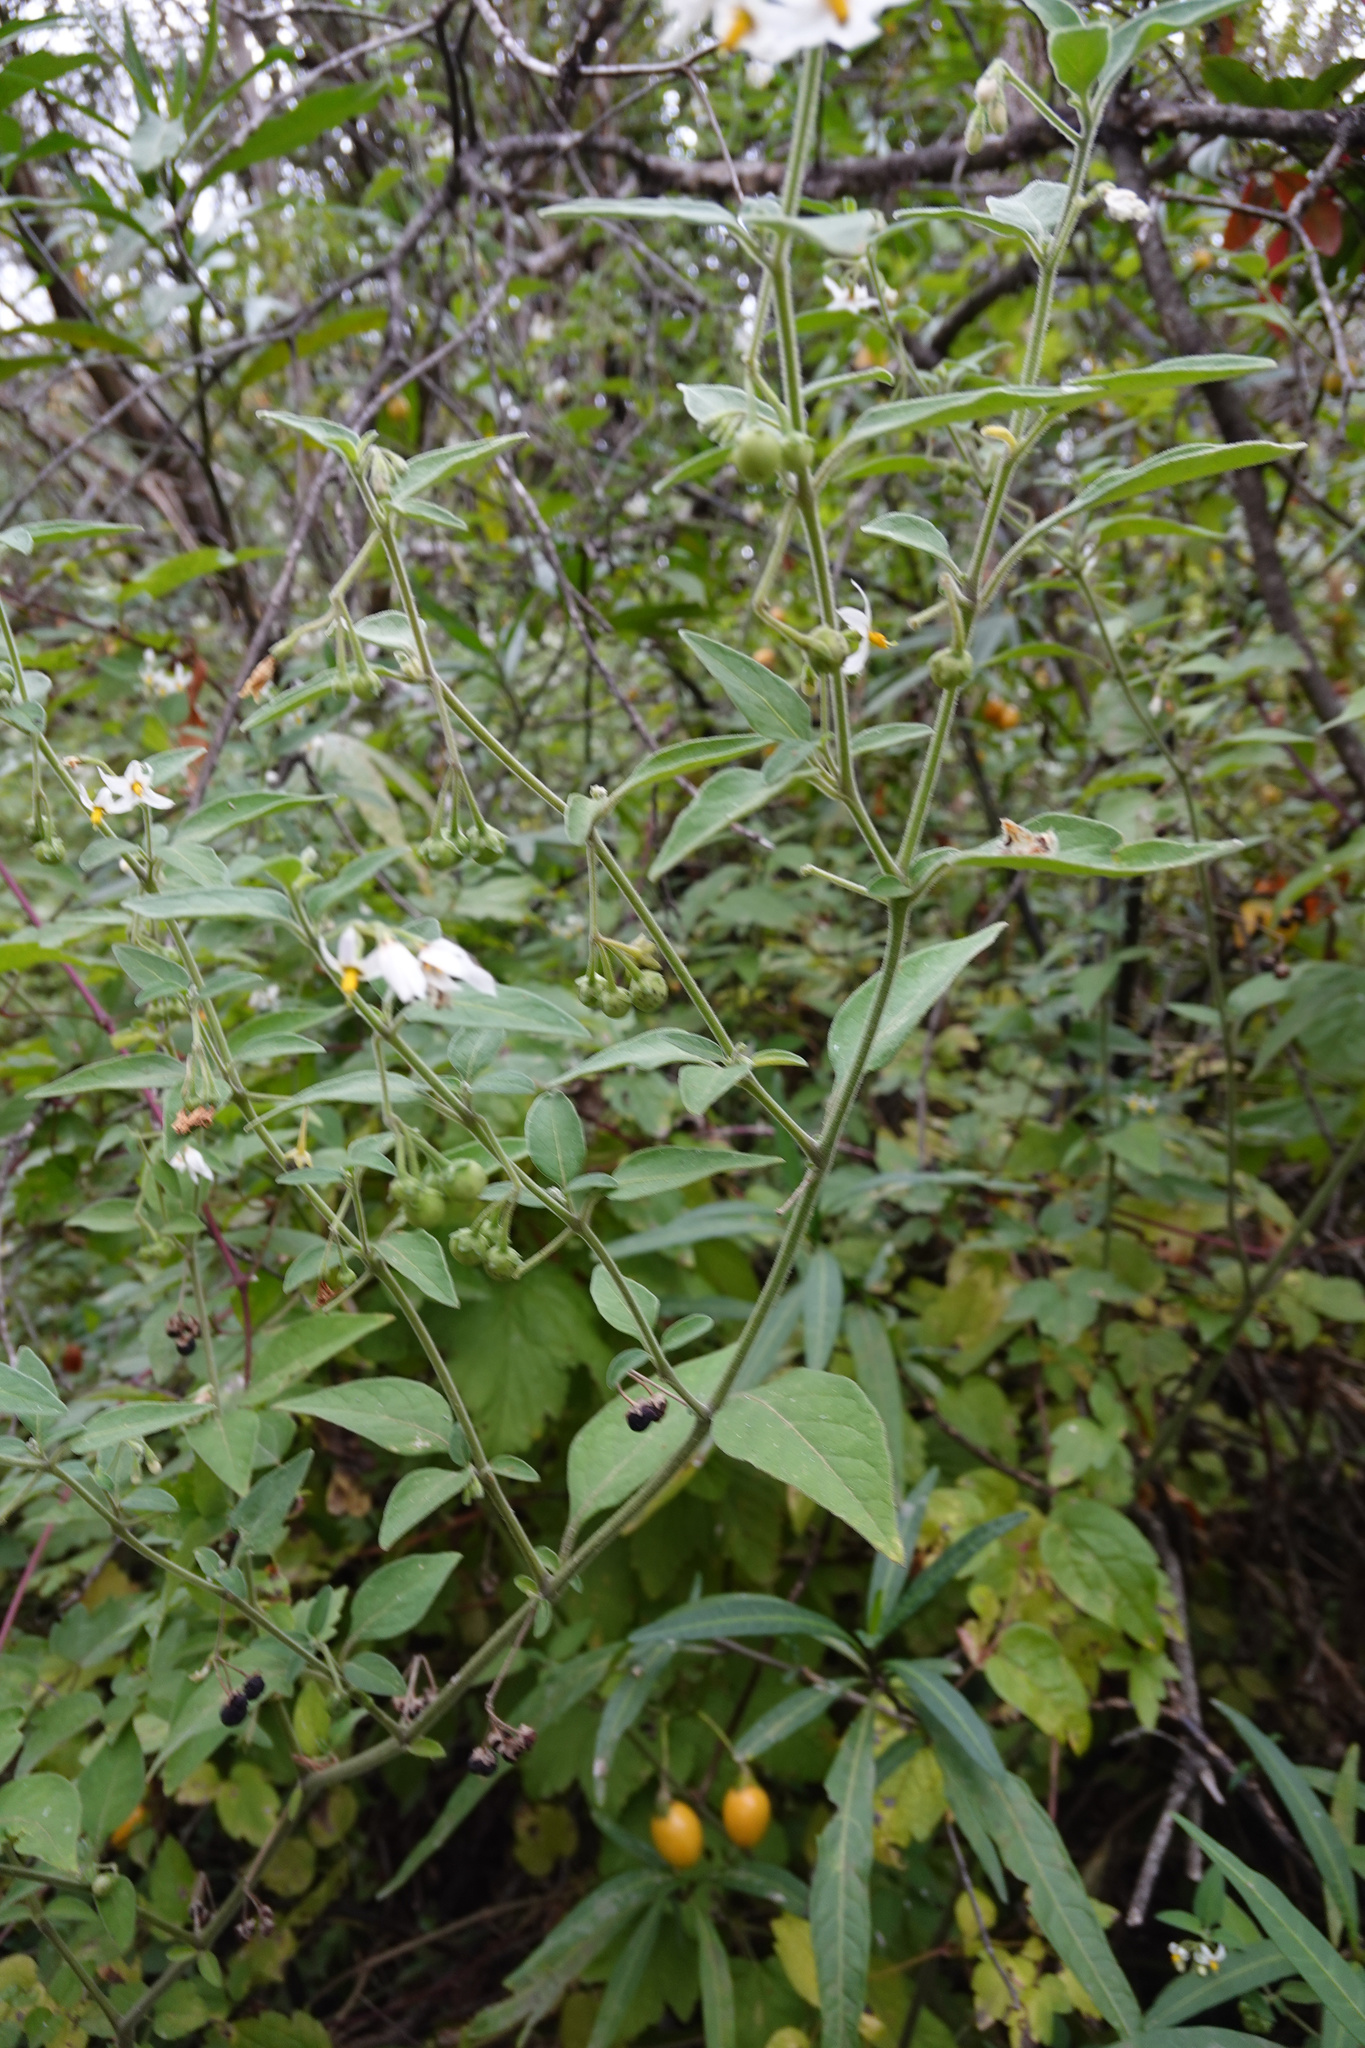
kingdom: Plantae
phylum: Tracheophyta
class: Magnoliopsida
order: Solanales
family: Solanaceae
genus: Solanum
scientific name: Solanum chenopodioides
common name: Tall nightshade
